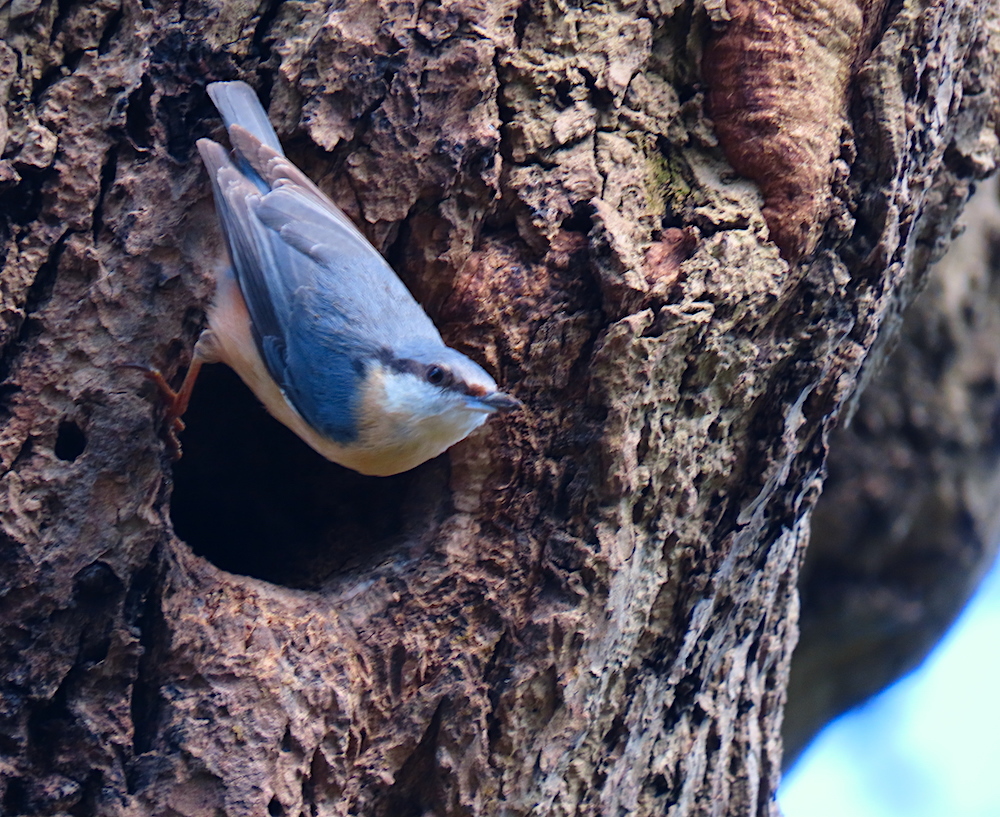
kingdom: Animalia
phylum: Chordata
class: Aves
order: Passeriformes
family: Sittidae
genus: Sitta
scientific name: Sitta europaea
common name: Eurasian nuthatch
